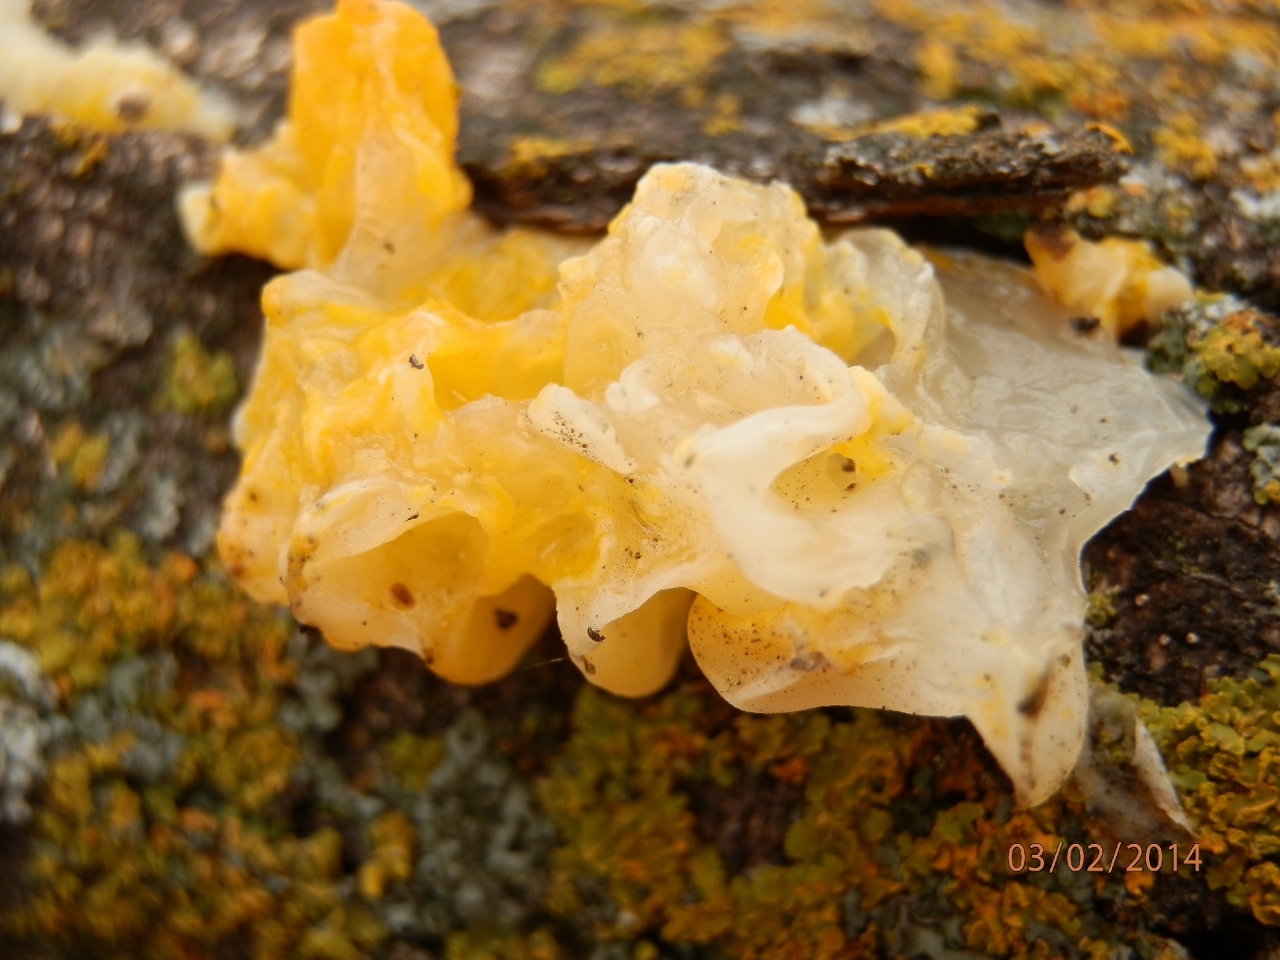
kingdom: Fungi
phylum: Basidiomycota
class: Tremellomycetes
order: Tremellales
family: Tremellaceae
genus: Tremella
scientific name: Tremella mesenterica
